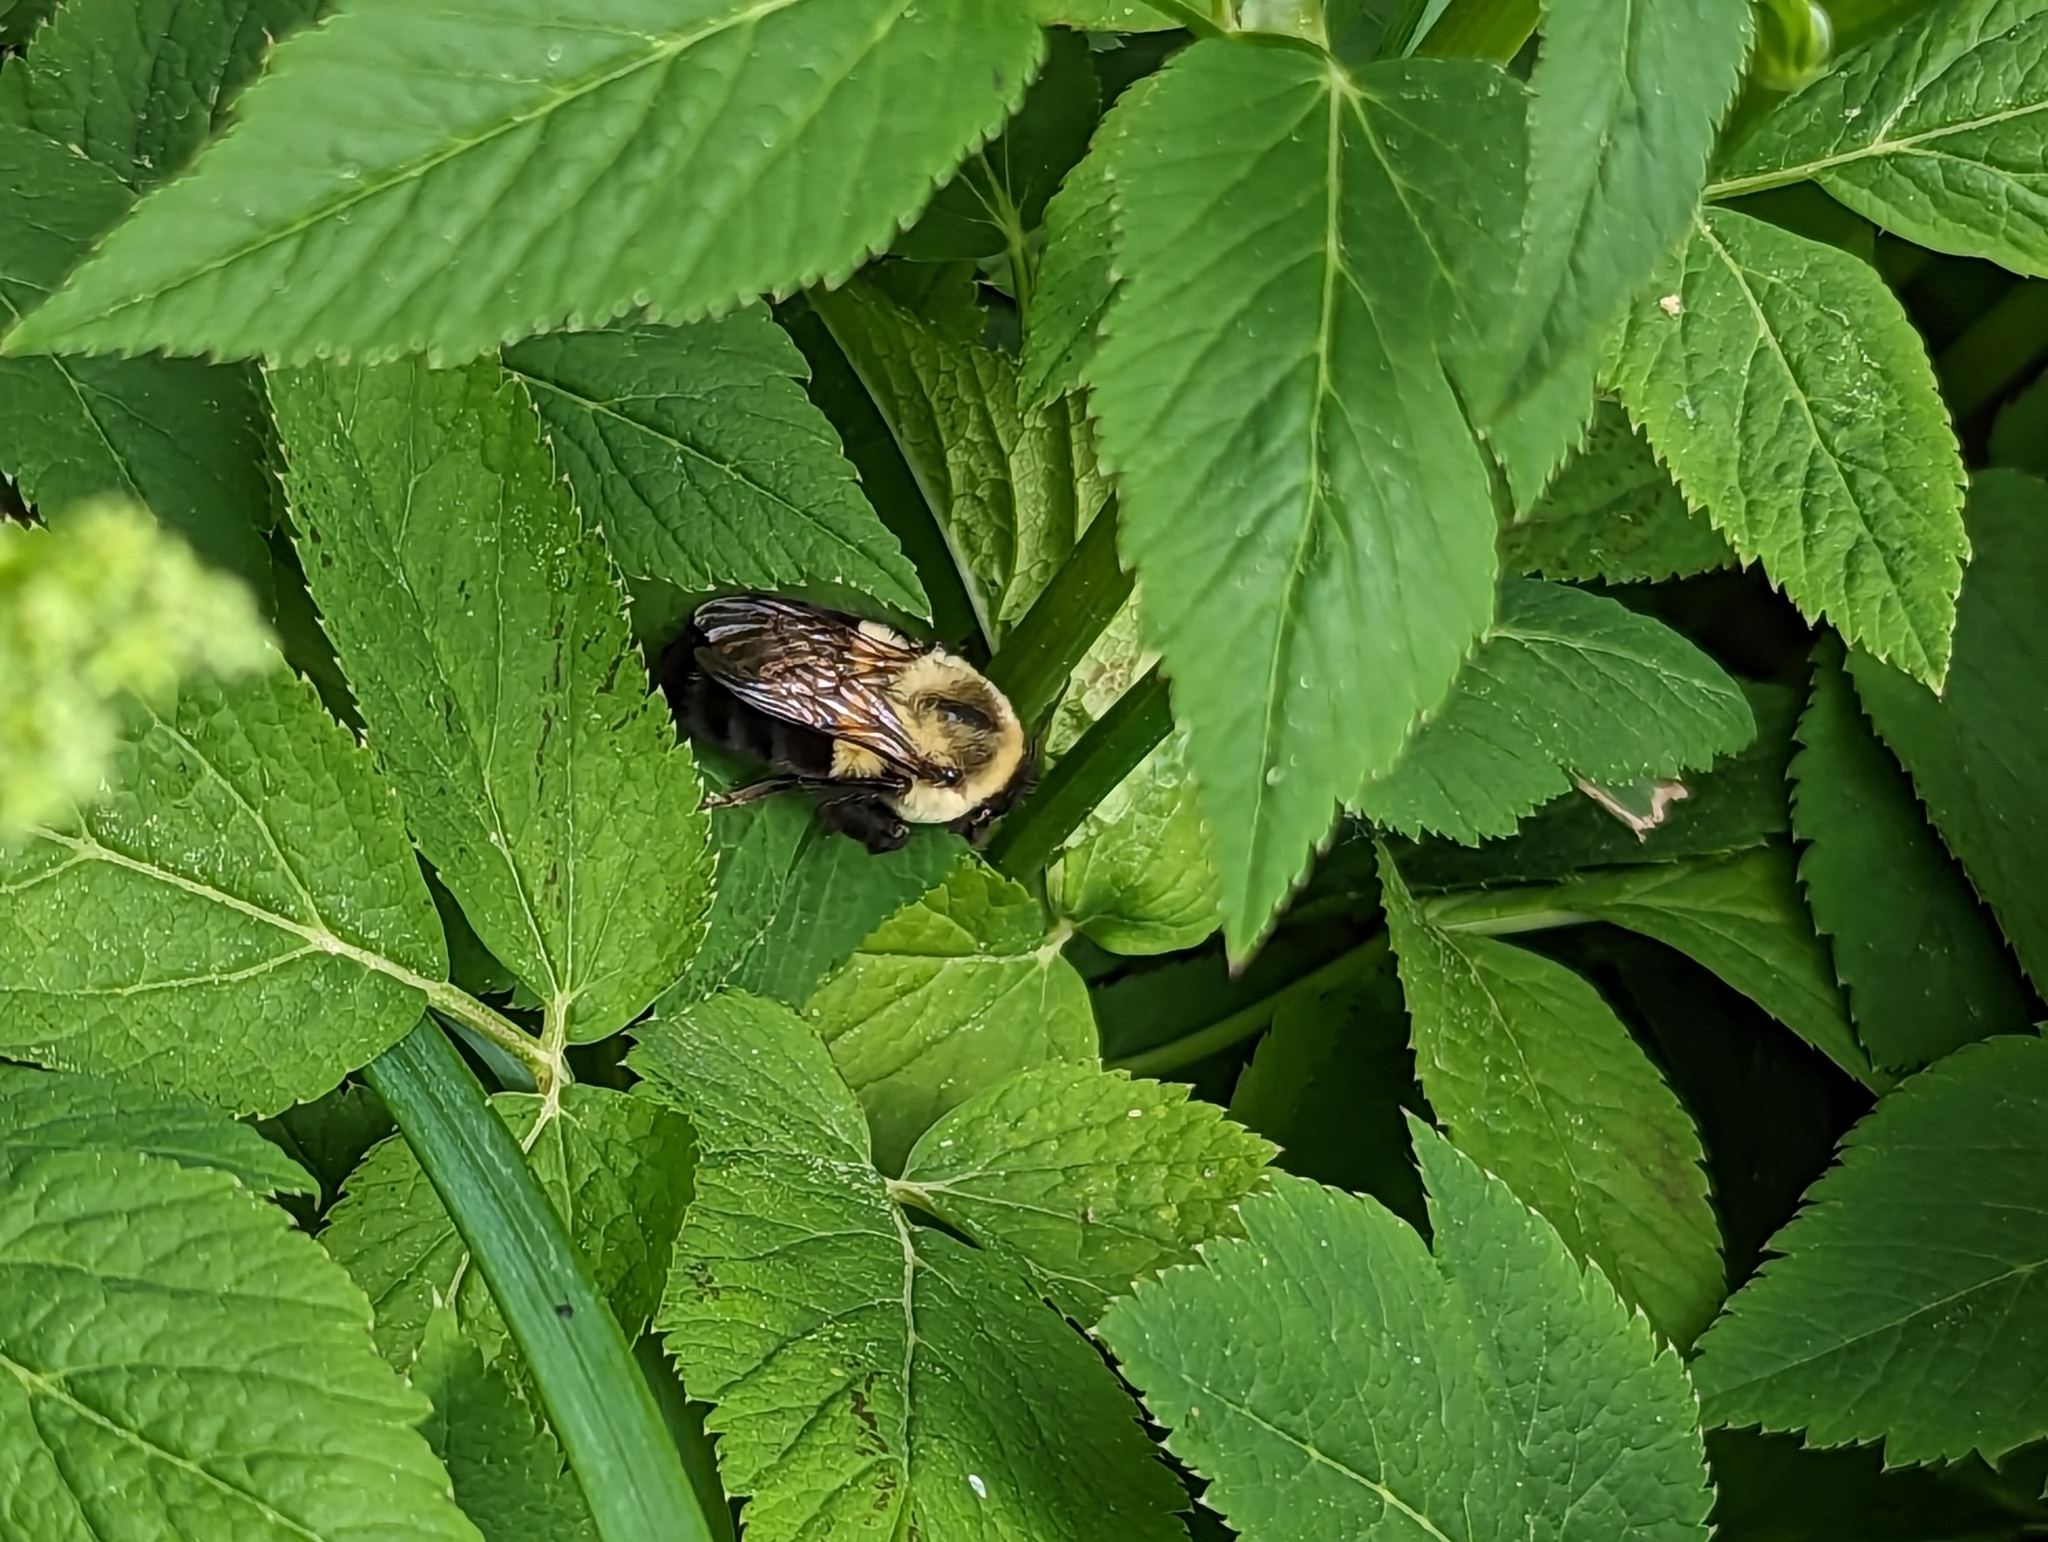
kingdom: Animalia
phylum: Arthropoda
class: Insecta
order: Hymenoptera
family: Apidae
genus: Bombus
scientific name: Bombus impatiens
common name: Common eastern bumble bee
